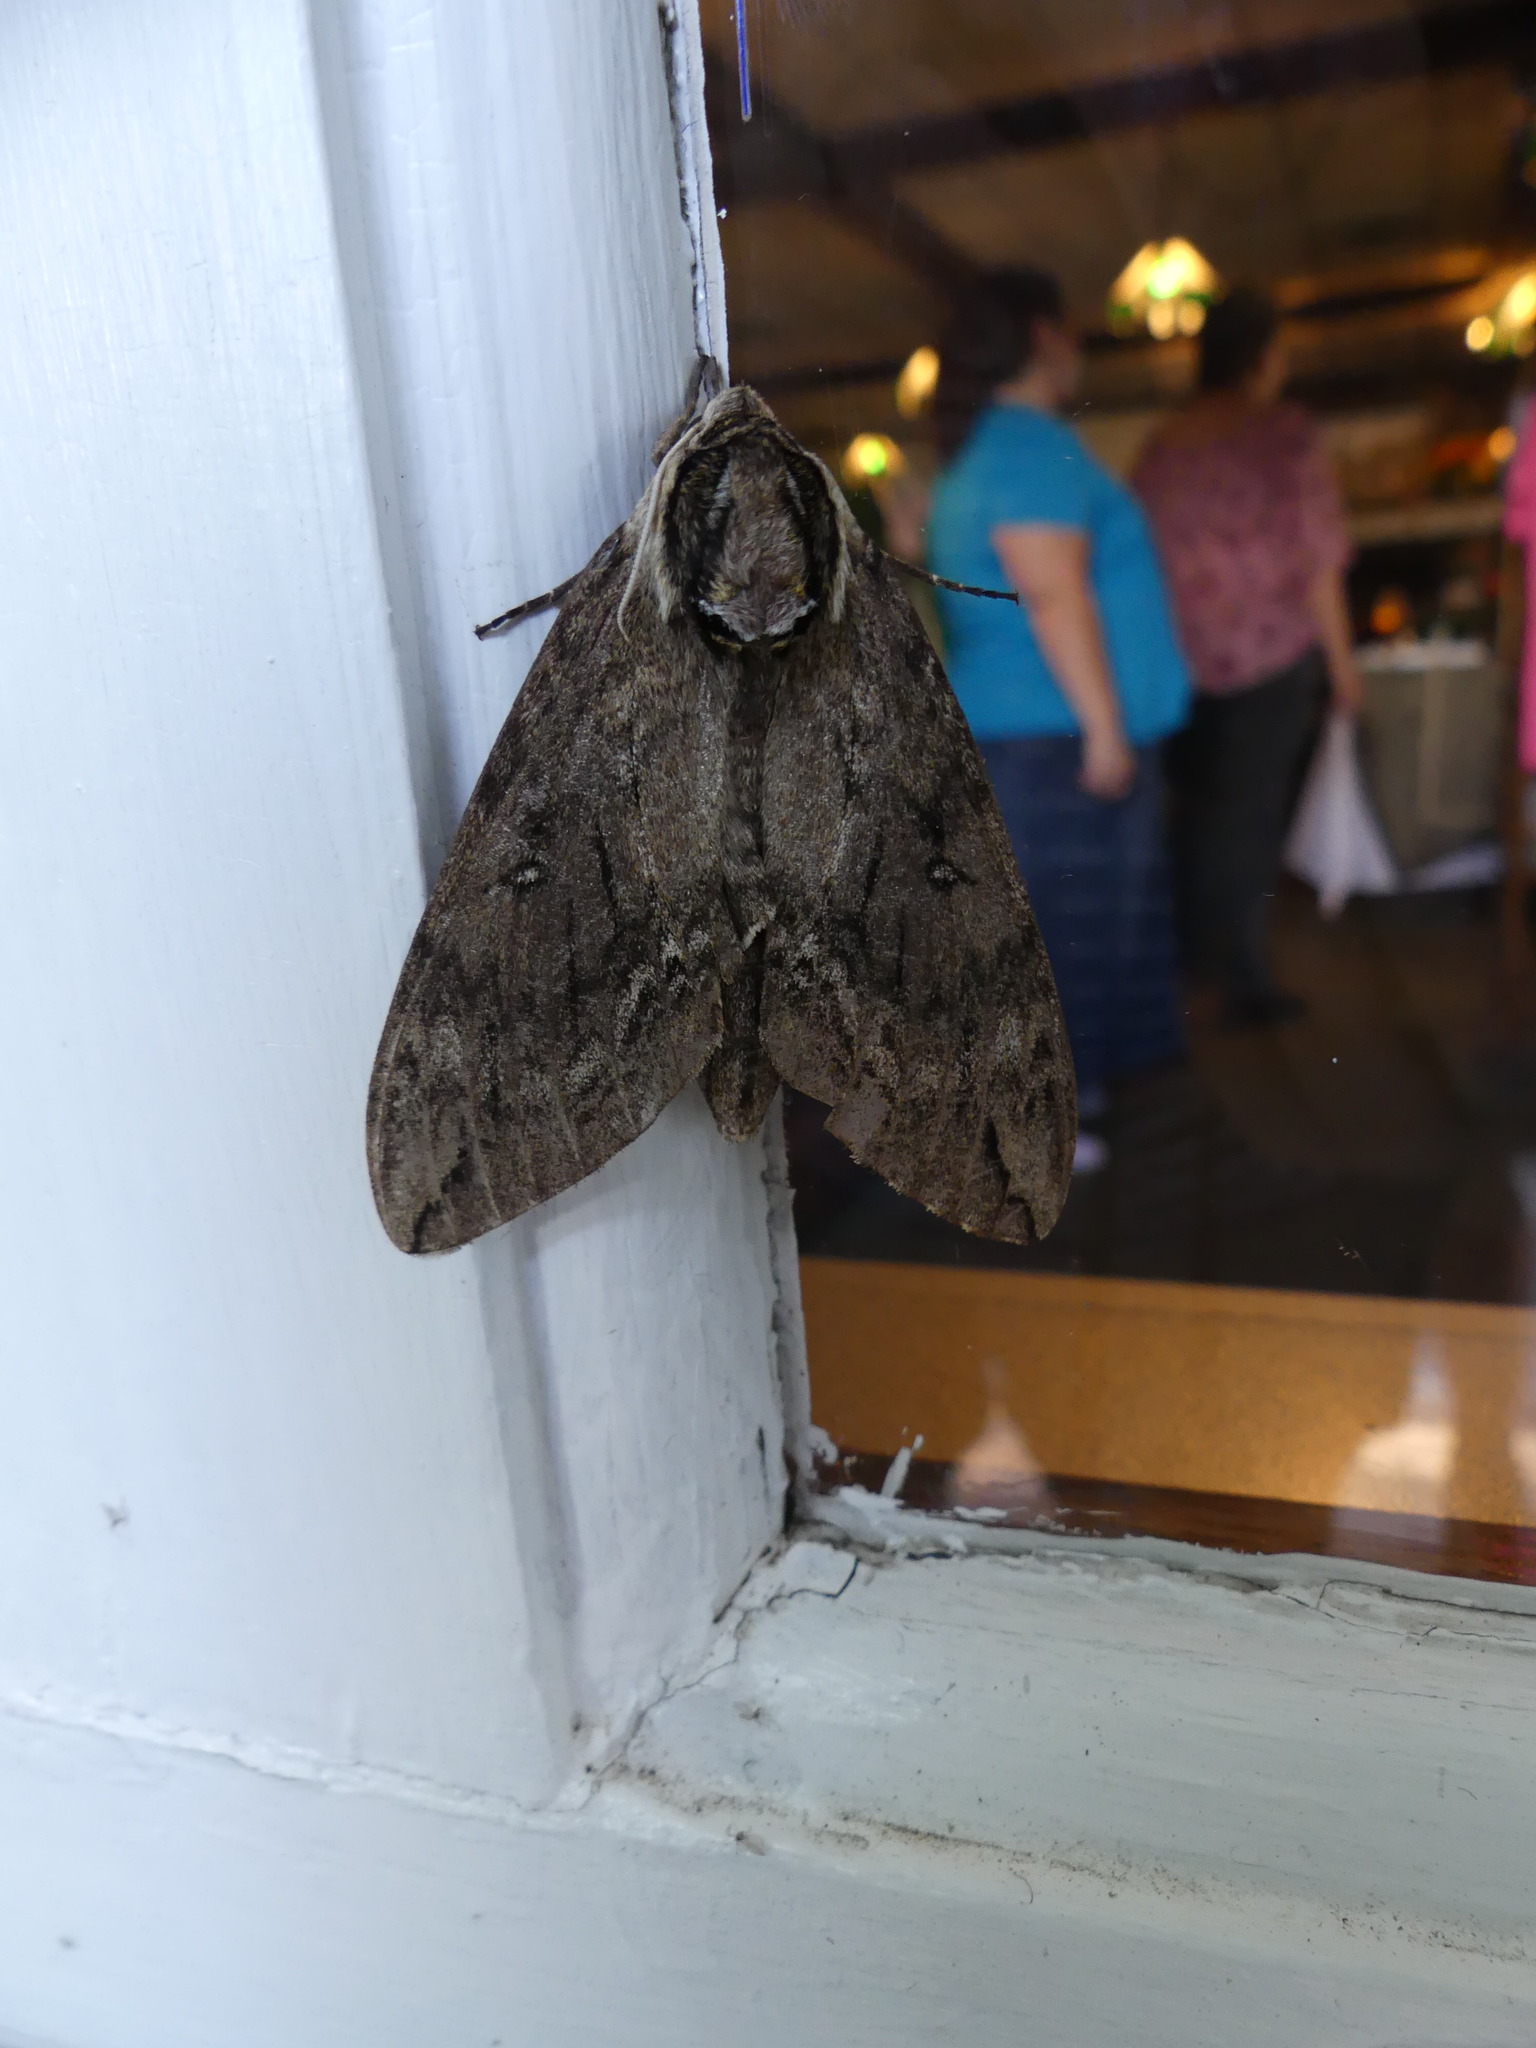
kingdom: Animalia
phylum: Arthropoda
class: Insecta
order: Lepidoptera
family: Sphingidae
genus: Ceratomia
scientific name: Ceratomia catalpae
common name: Catalpa hornworm
